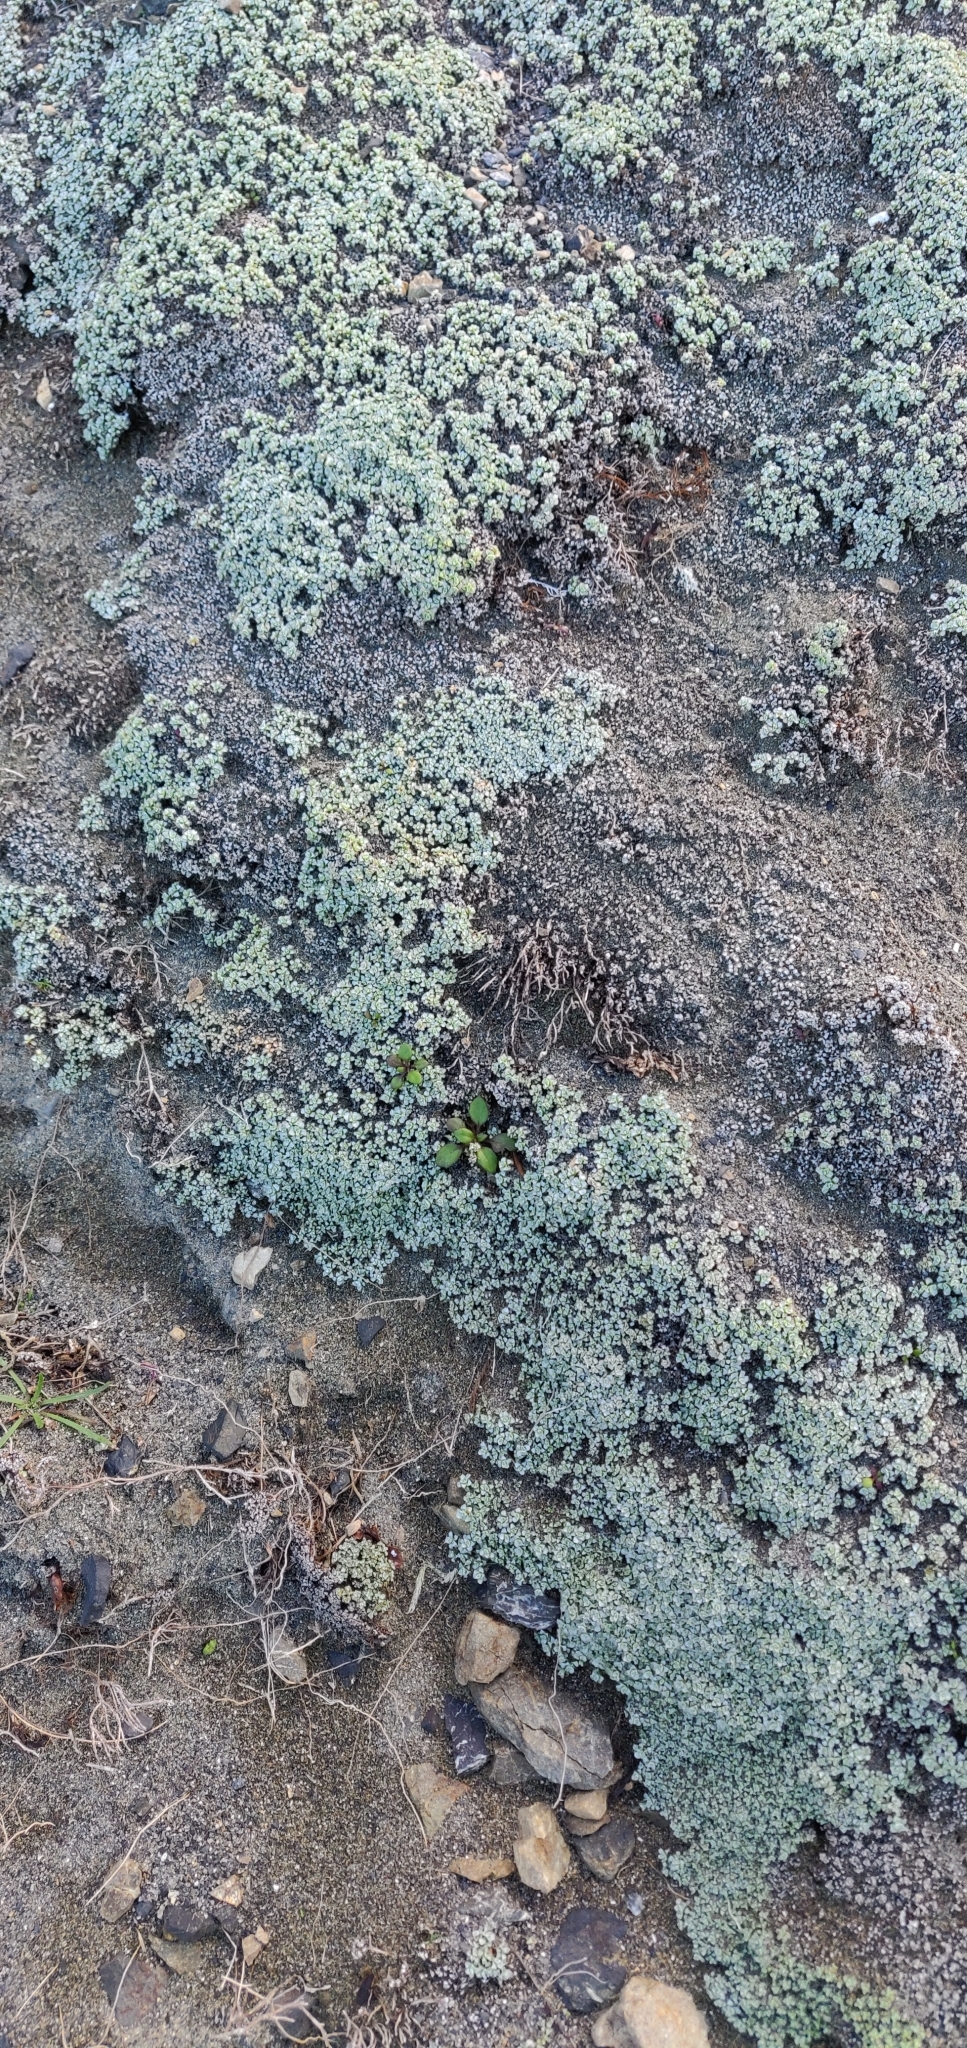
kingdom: Plantae
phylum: Tracheophyta
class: Magnoliopsida
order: Asterales
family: Asteraceae
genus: Raoulia
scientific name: Raoulia hookeri
